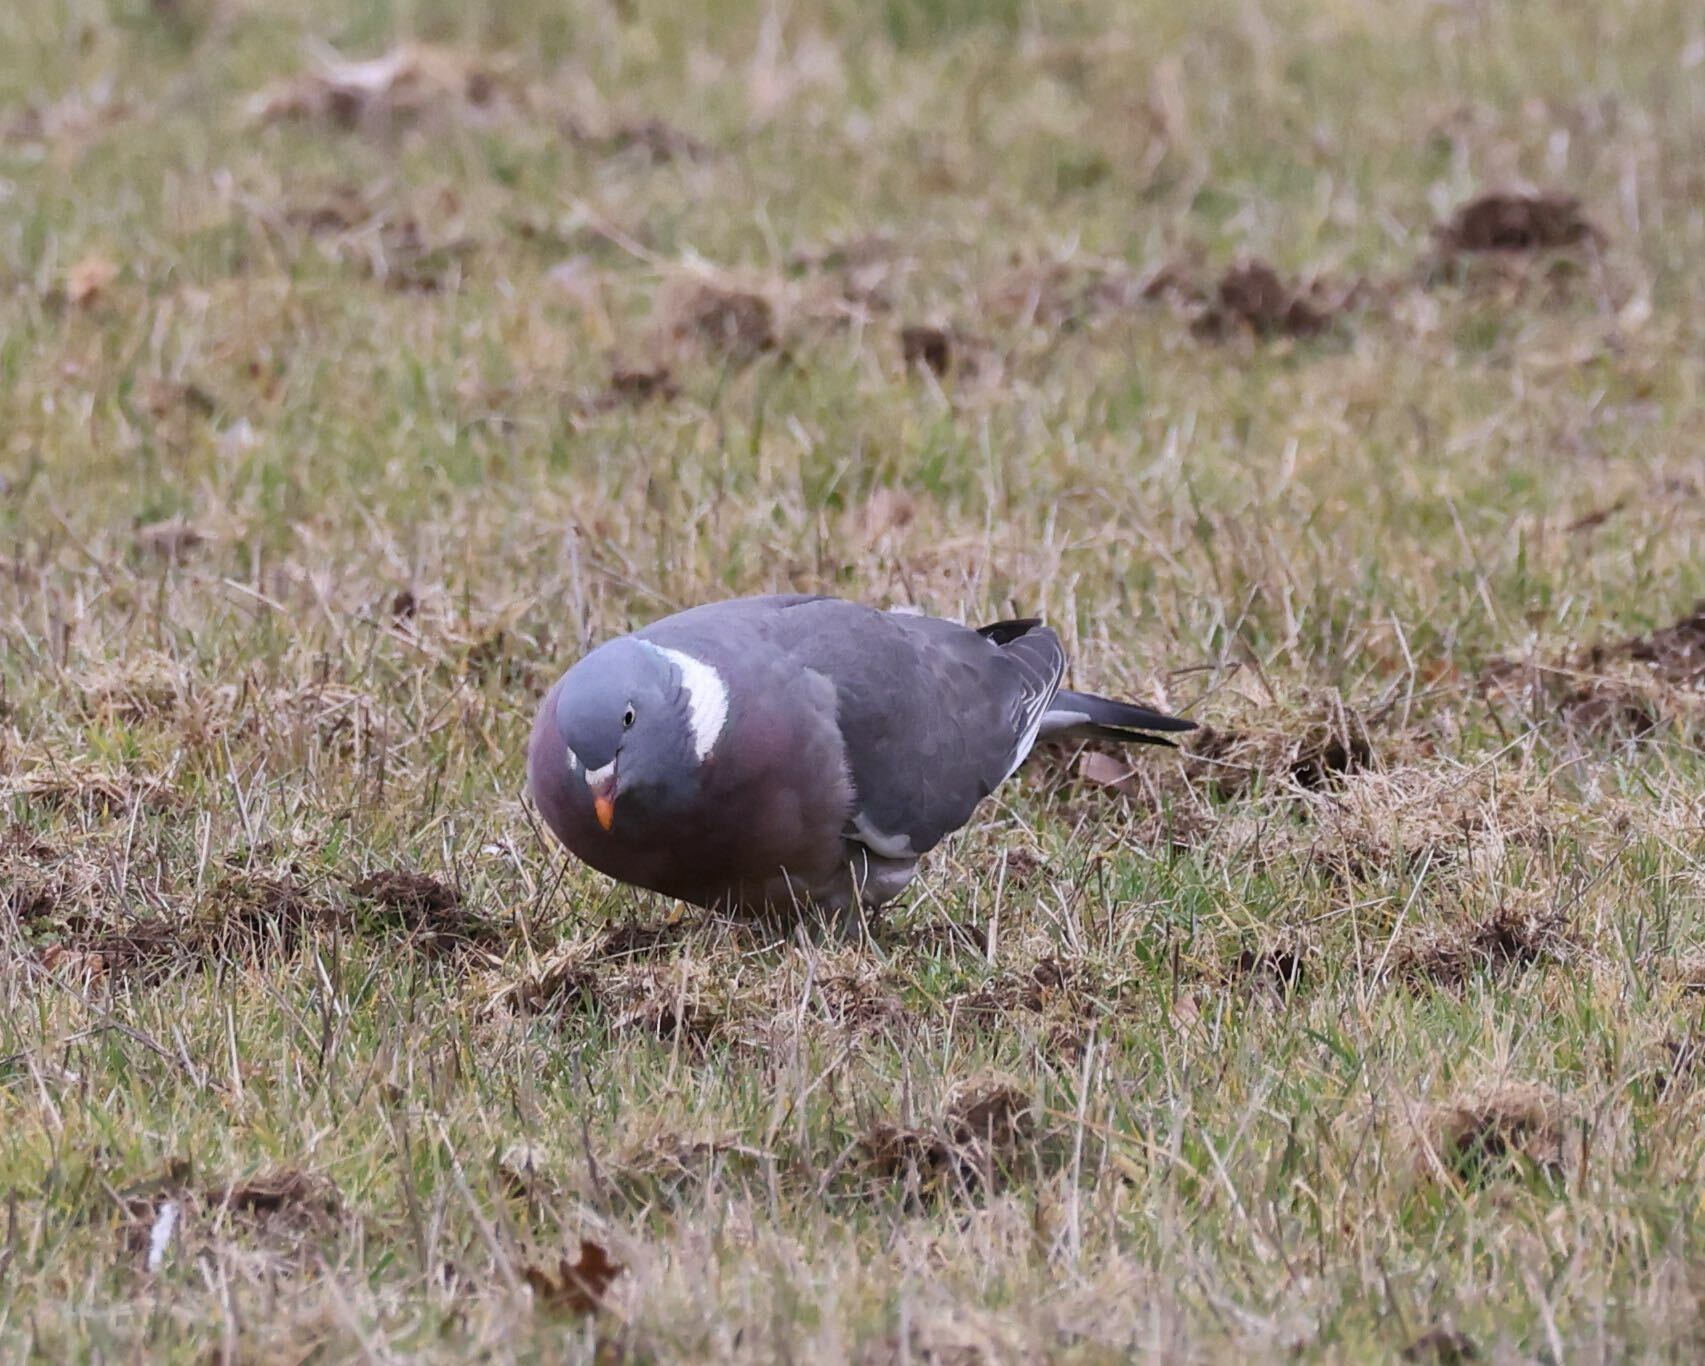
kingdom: Animalia
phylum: Chordata
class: Aves
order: Columbiformes
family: Columbidae
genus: Columba
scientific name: Columba palumbus
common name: Common wood pigeon
